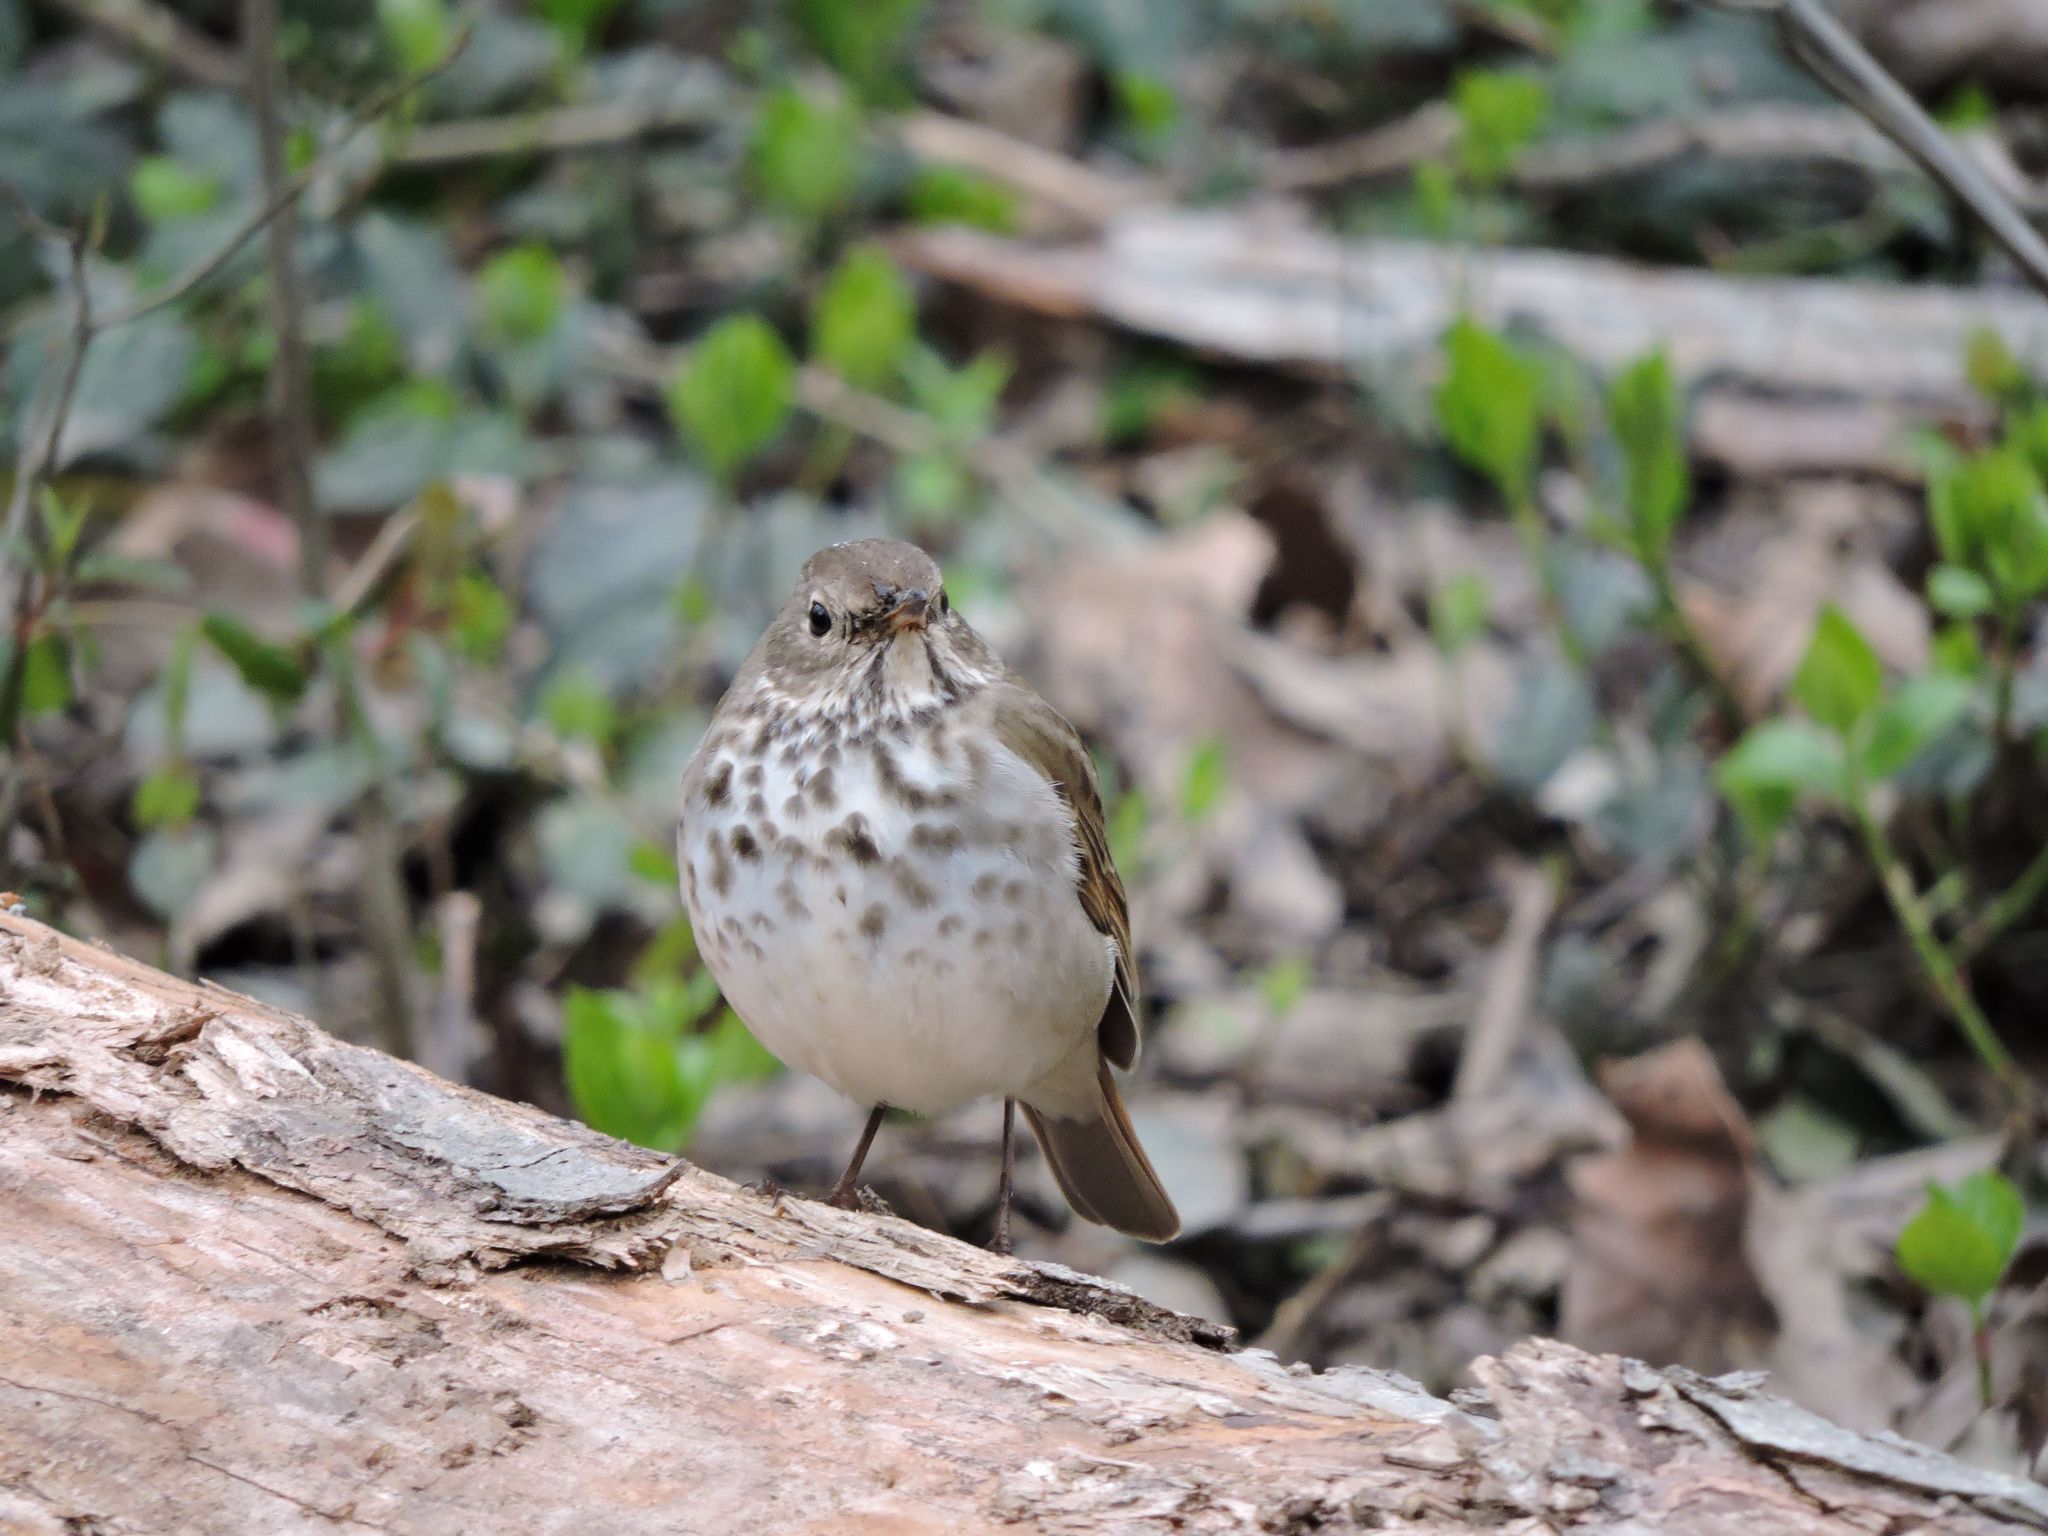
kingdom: Animalia
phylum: Chordata
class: Aves
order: Passeriformes
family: Turdidae
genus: Catharus
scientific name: Catharus guttatus
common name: Hermit thrush
